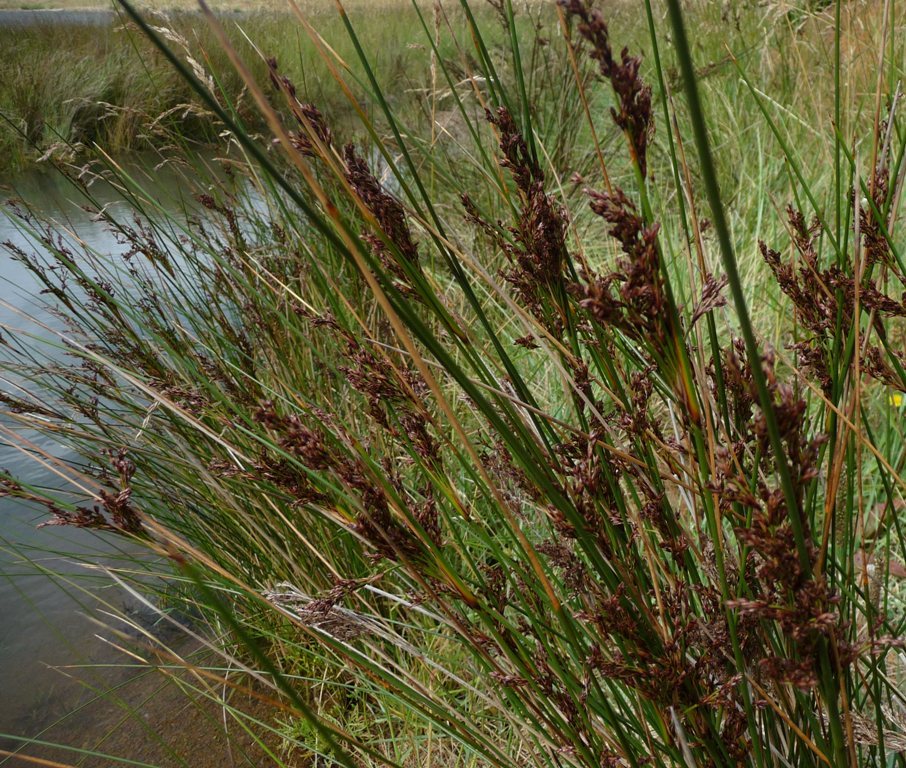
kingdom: Plantae
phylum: Tracheophyta
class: Liliopsida
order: Poales
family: Juncaceae
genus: Juncus
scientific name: Juncus kraussii
